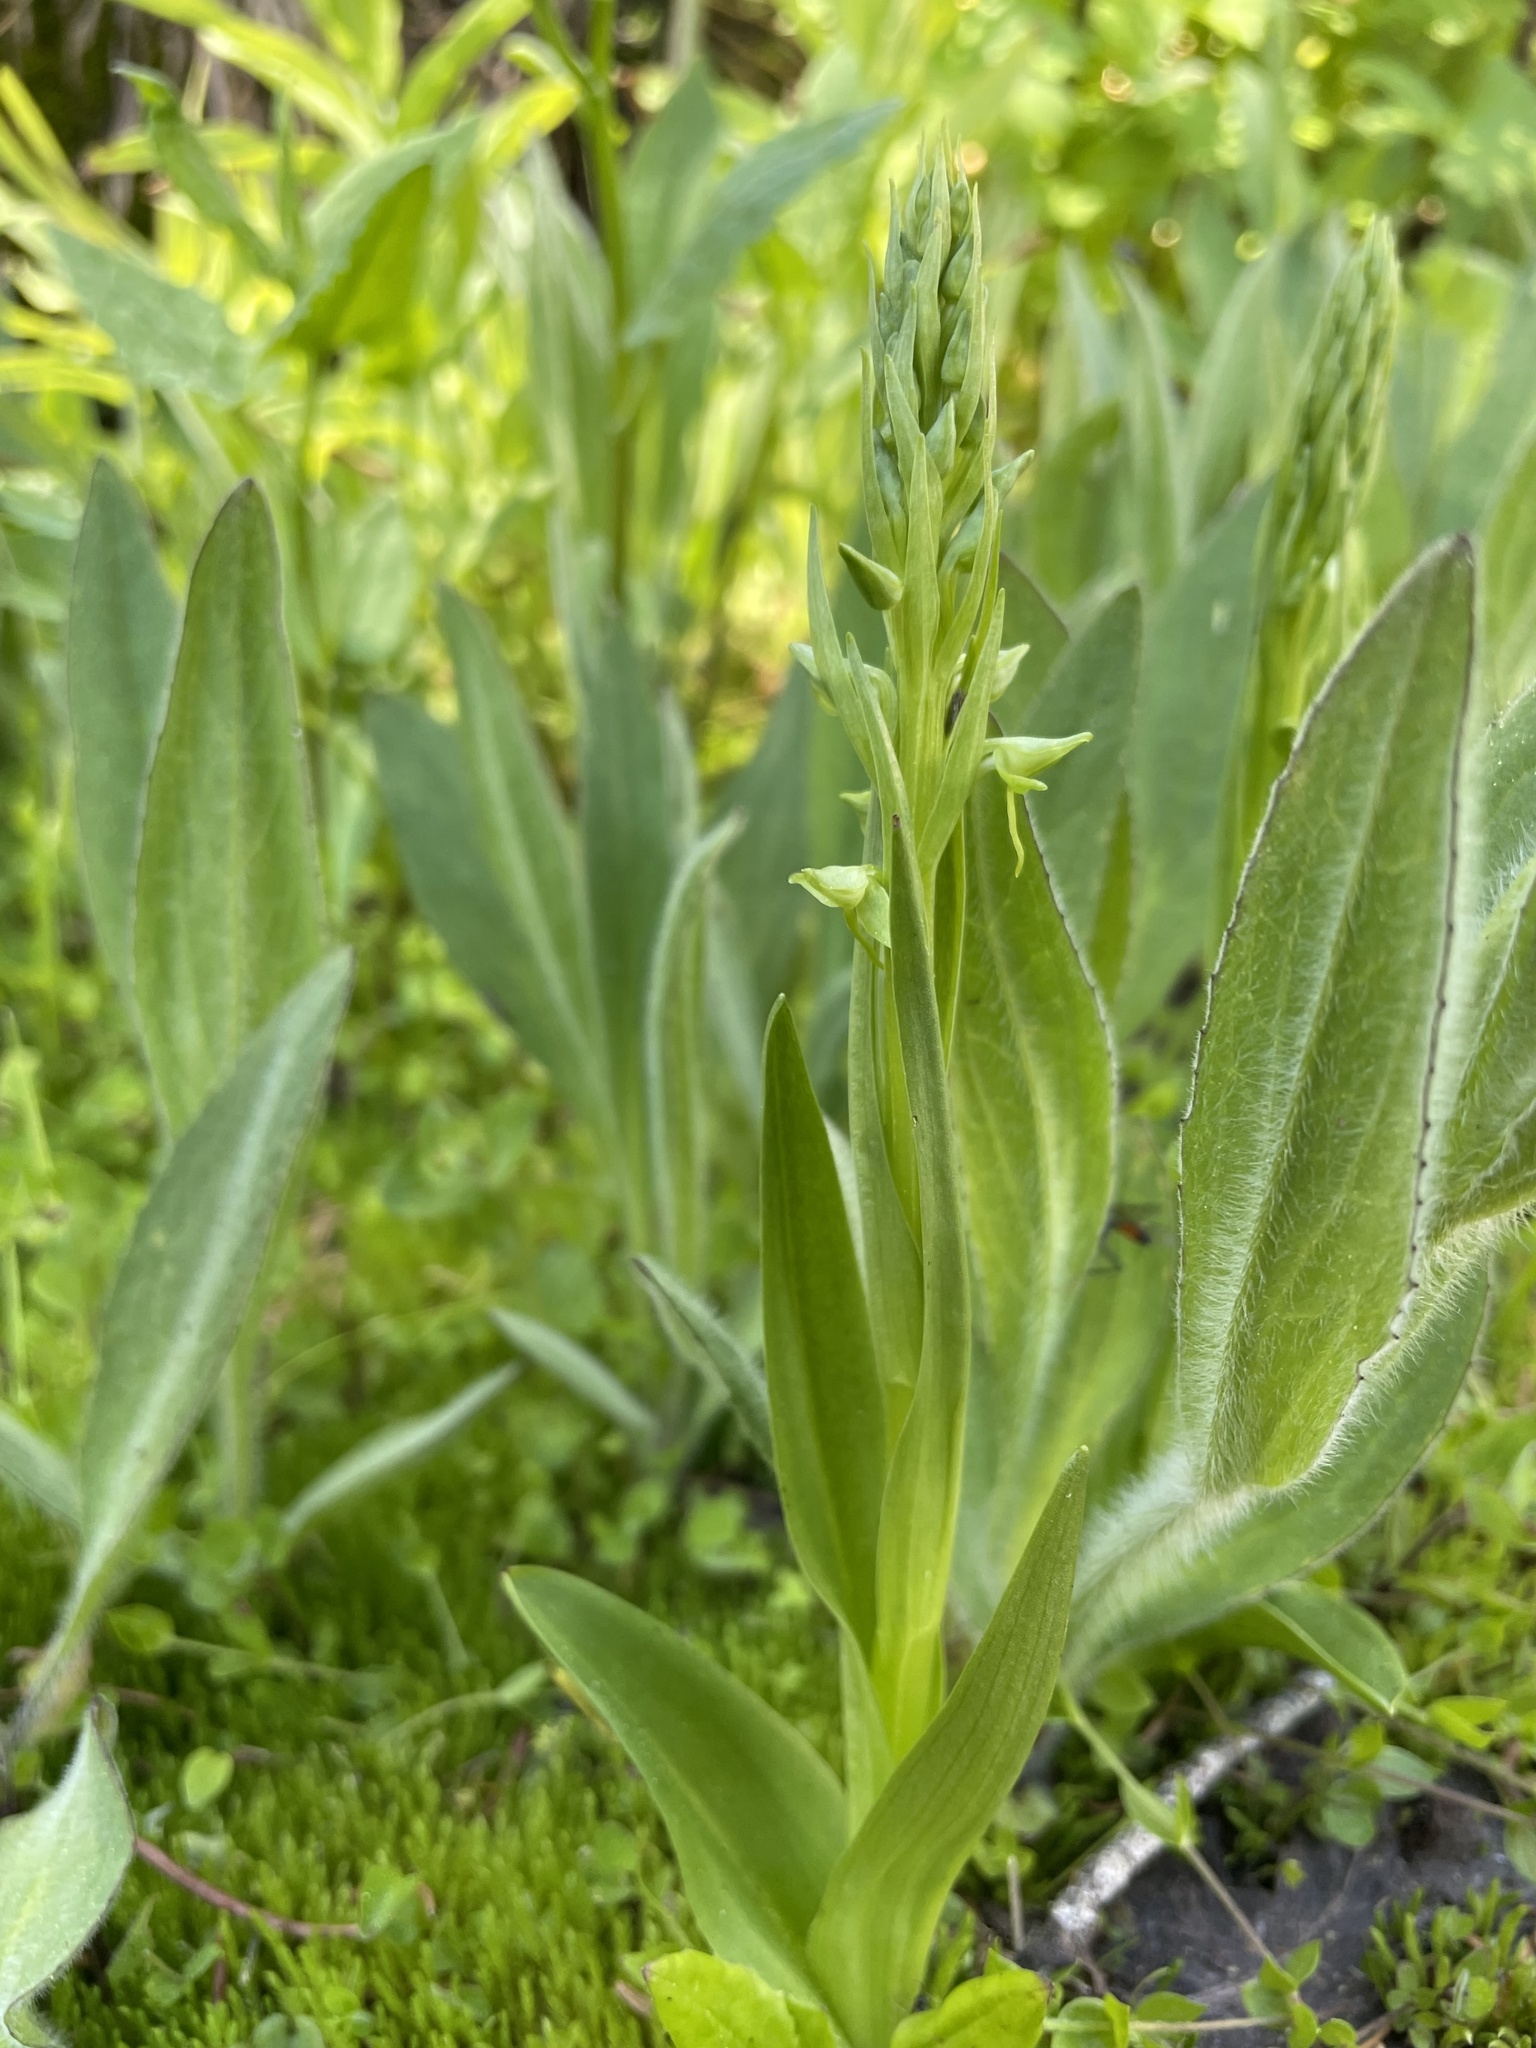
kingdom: Plantae
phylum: Tracheophyta
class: Liliopsida
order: Asparagales
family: Orchidaceae
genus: Platanthera
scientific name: Platanthera sparsiflora
